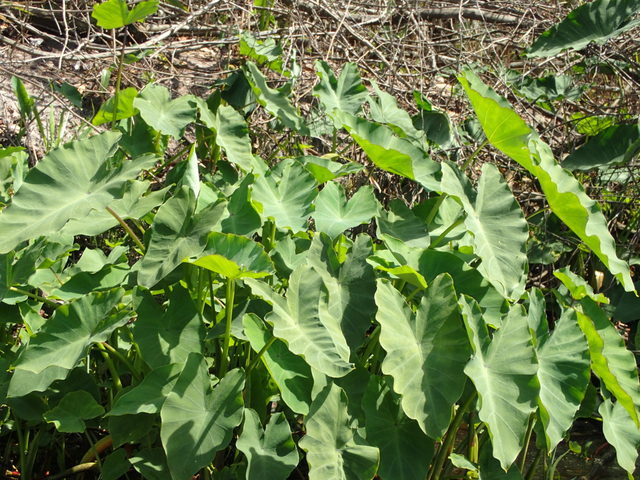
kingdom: Plantae
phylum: Tracheophyta
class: Liliopsida
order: Alismatales
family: Araceae
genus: Colocasia
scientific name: Colocasia esculenta
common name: Taro
